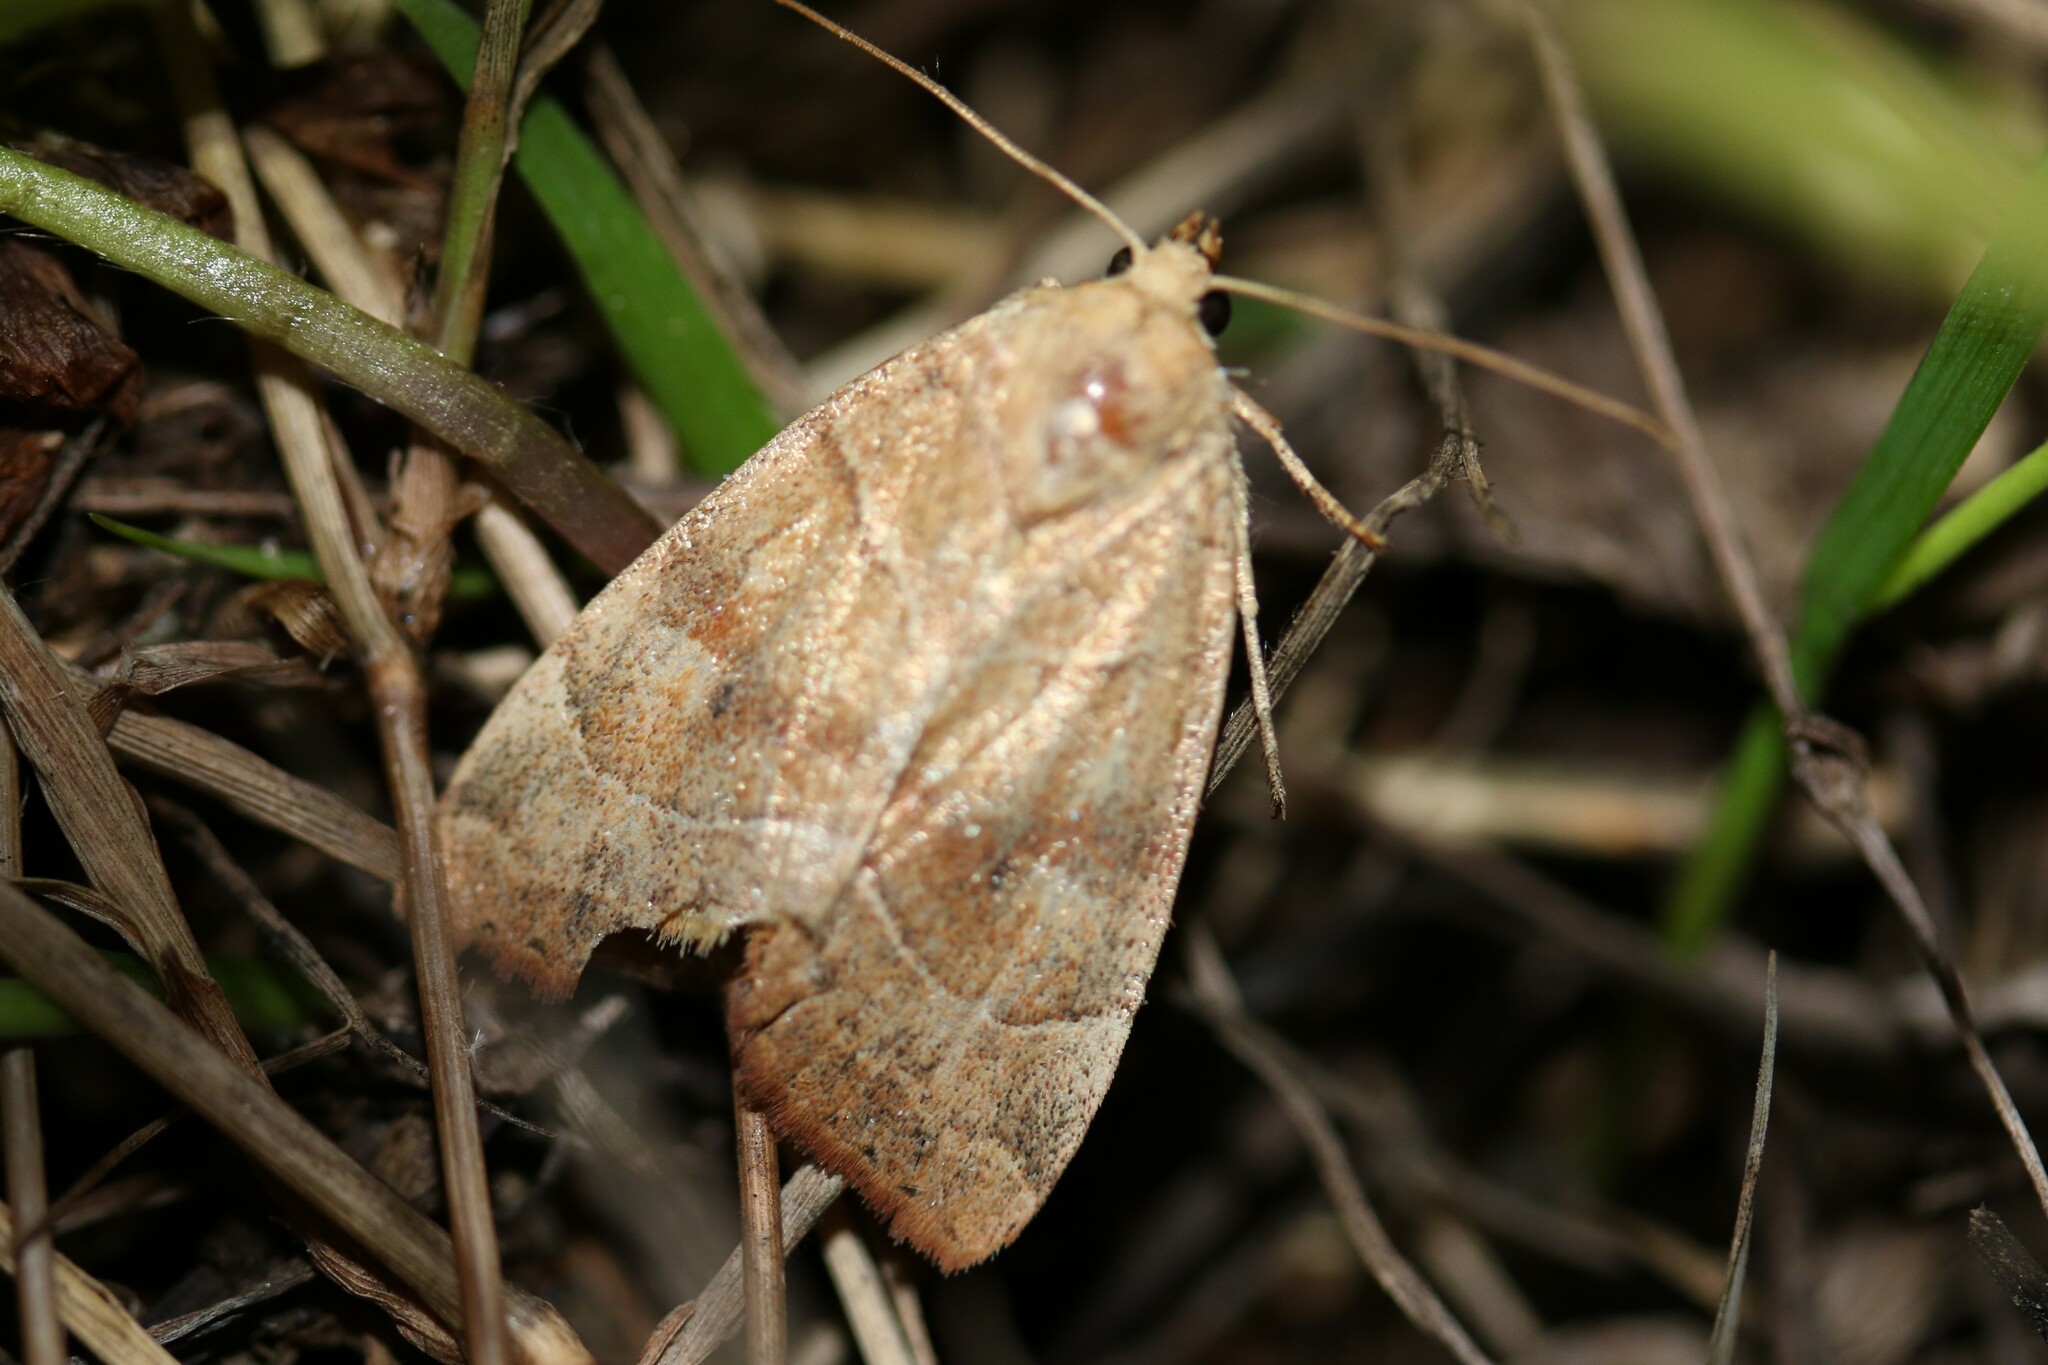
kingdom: Animalia
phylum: Arthropoda
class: Insecta
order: Lepidoptera
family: Noctuidae
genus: Cosmia
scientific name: Cosmia trapezina
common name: Dun-bar
